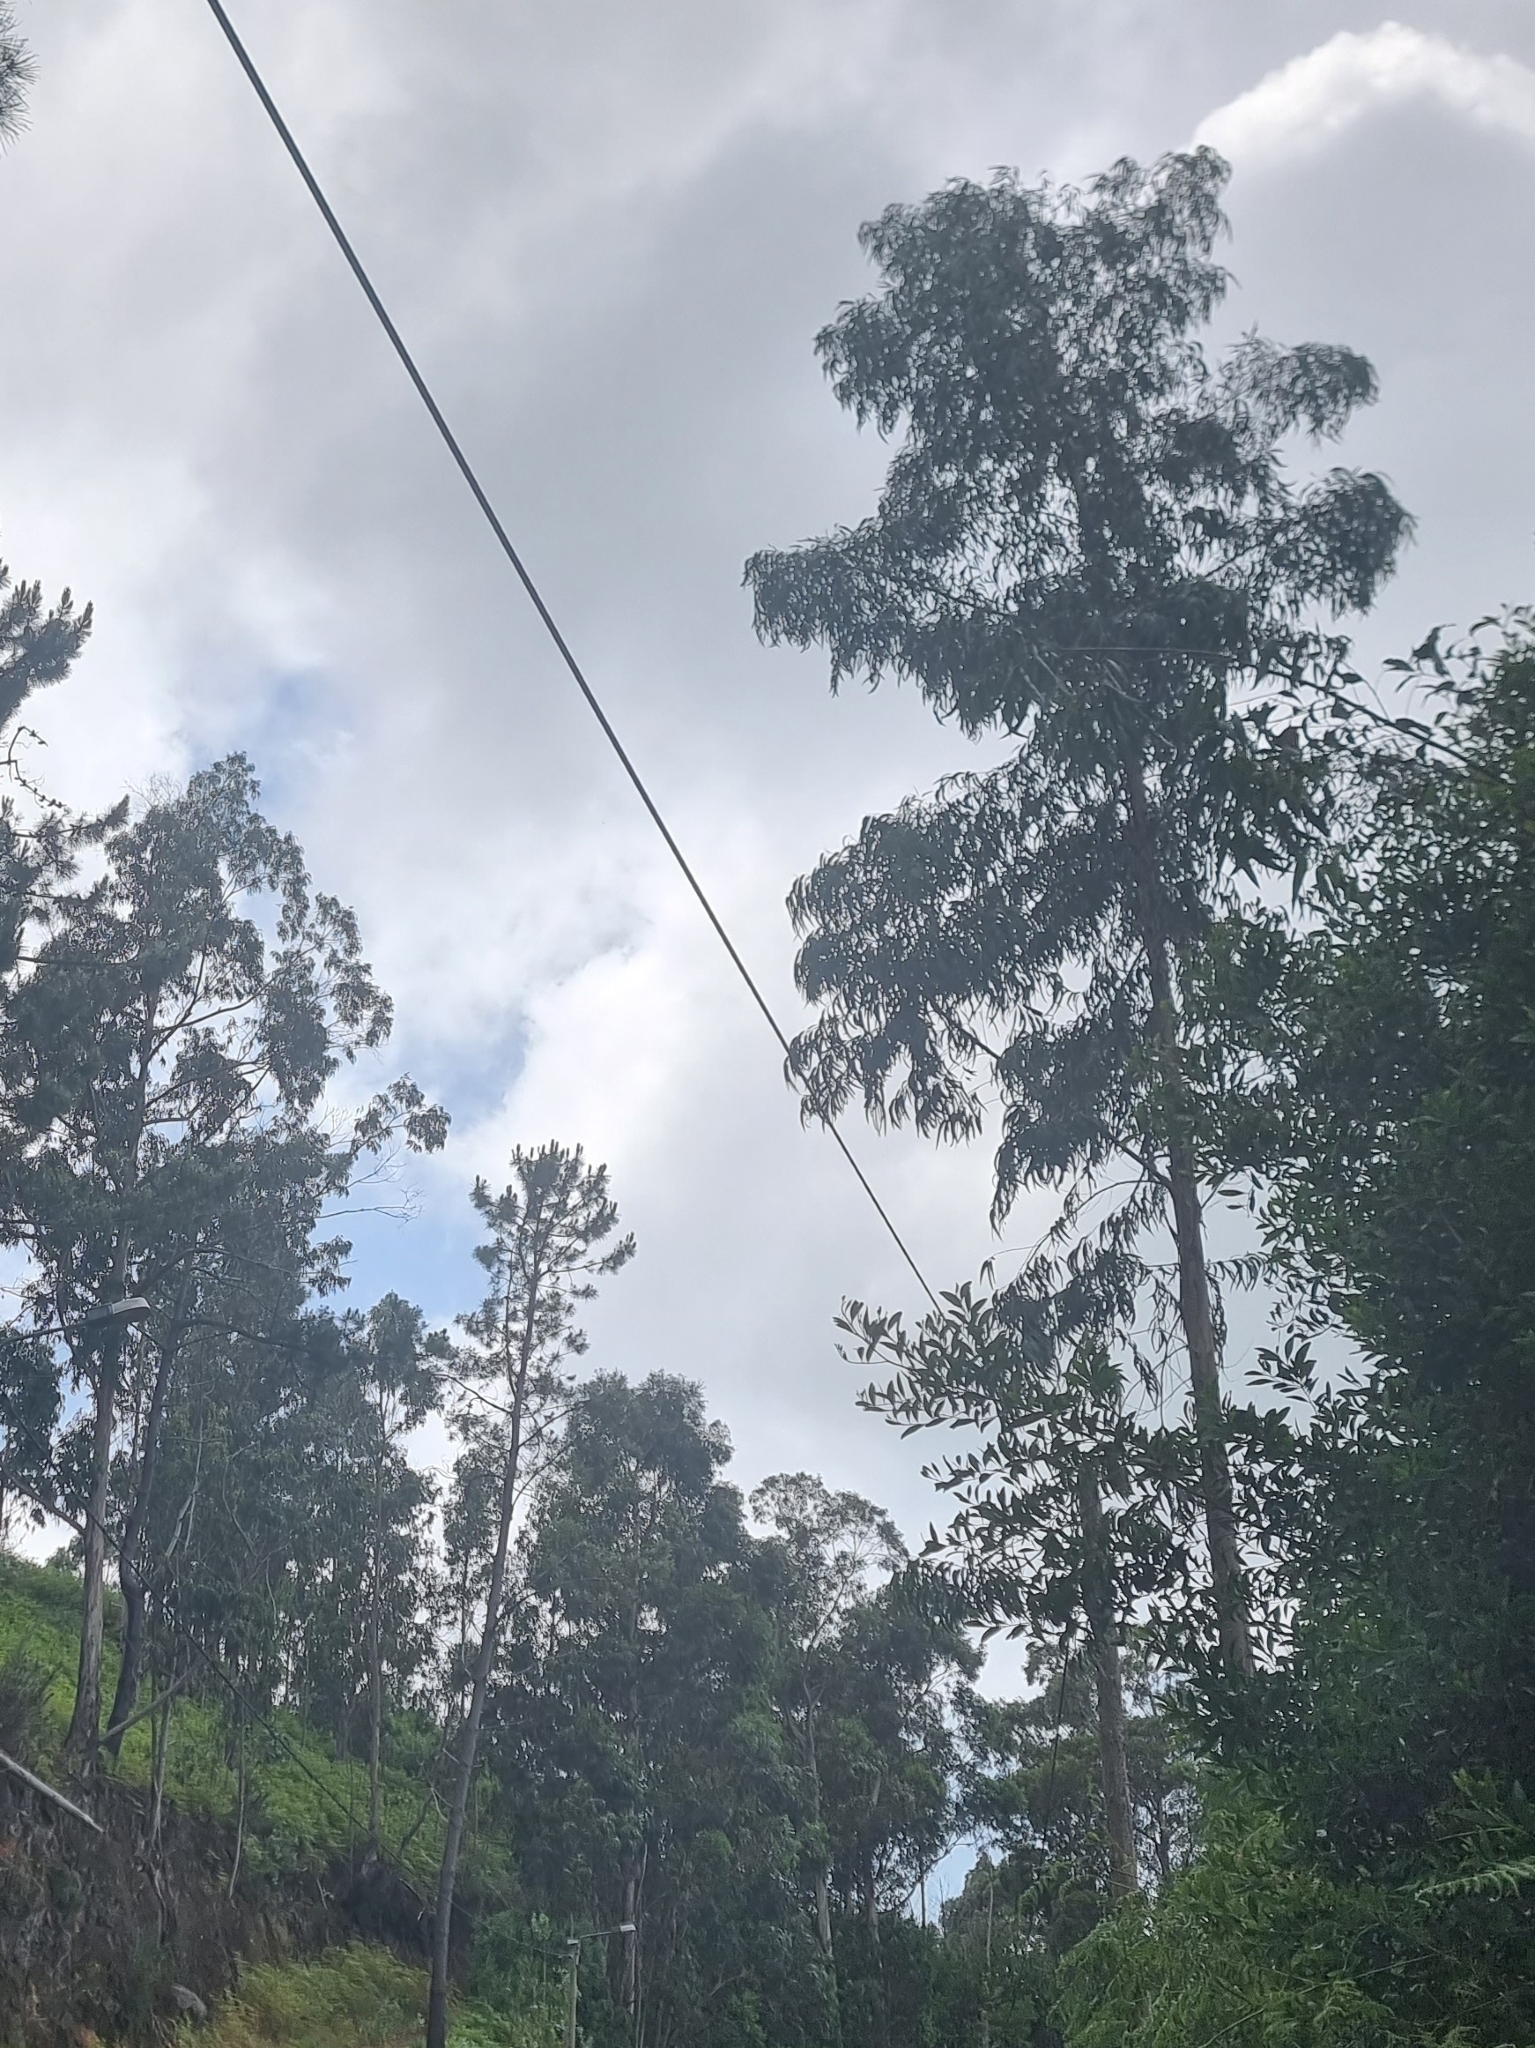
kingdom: Plantae
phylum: Tracheophyta
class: Magnoliopsida
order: Myrtales
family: Myrtaceae
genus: Eucalyptus
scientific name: Eucalyptus globulus
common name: Southern blue-gum
